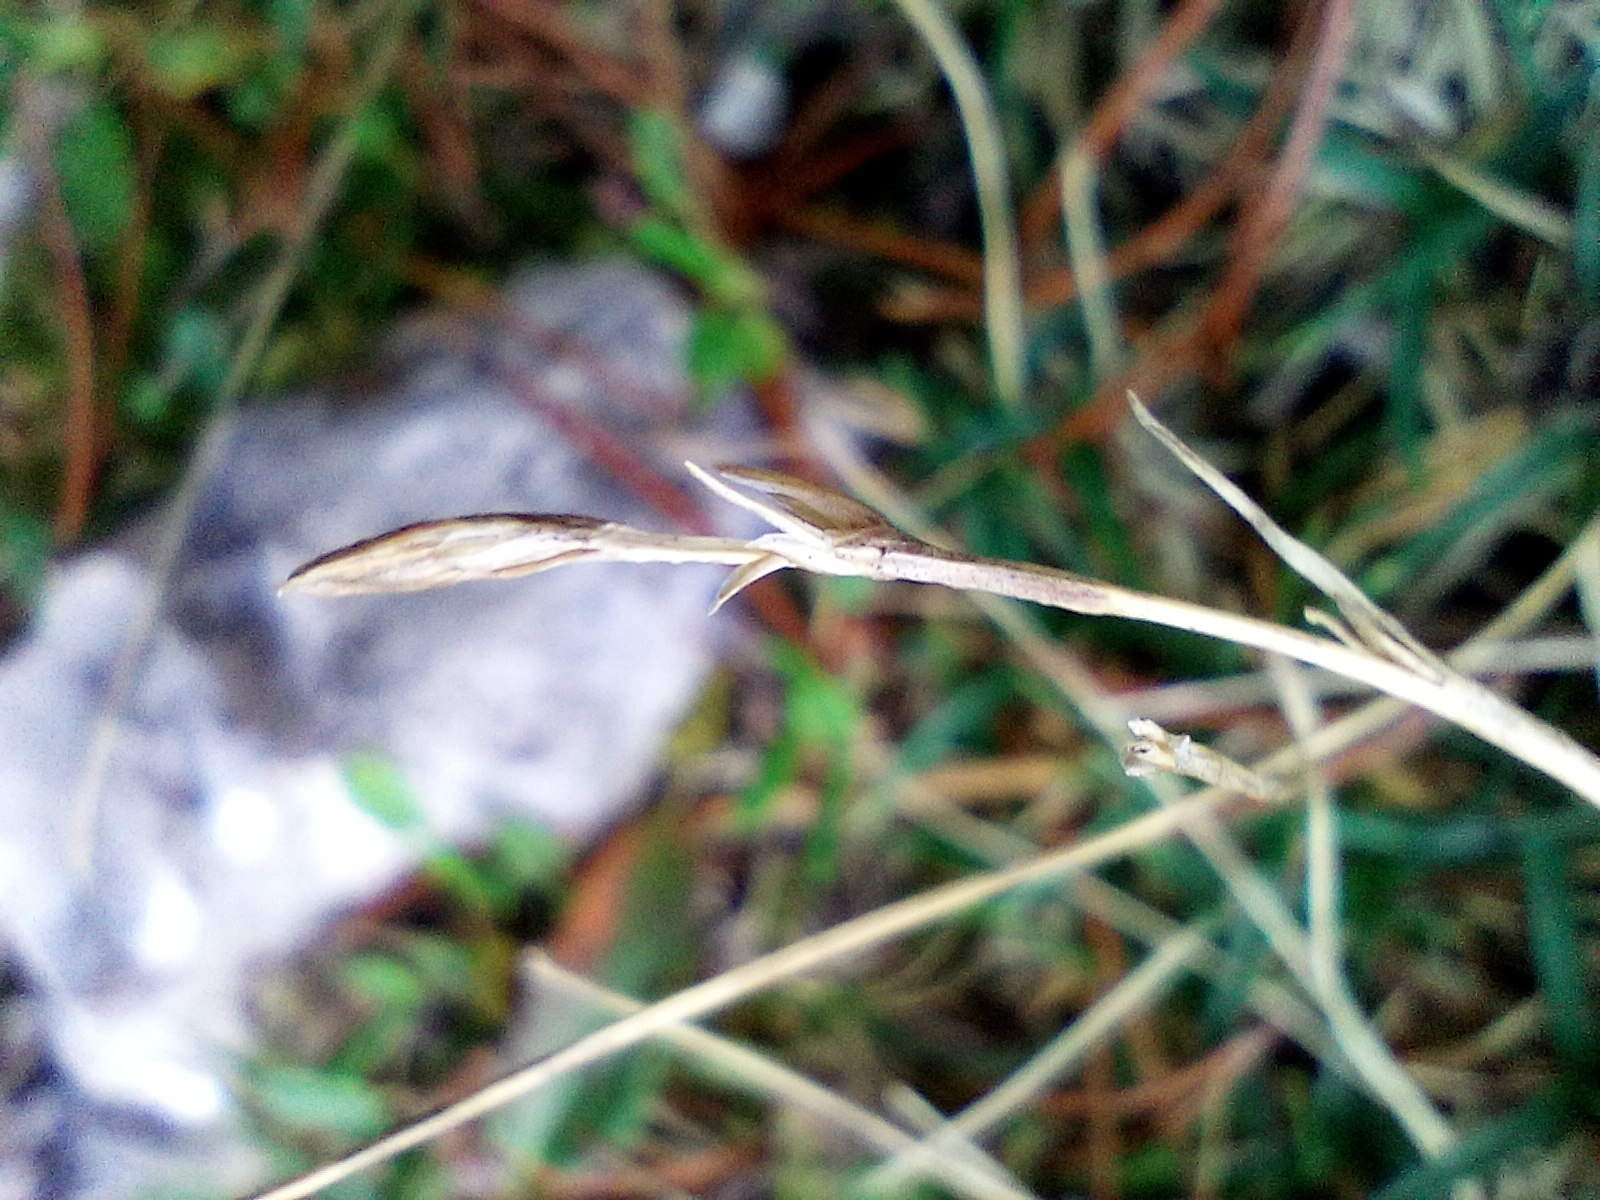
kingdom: Plantae
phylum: Tracheophyta
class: Liliopsida
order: Poales
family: Cyperaceae
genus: Carex
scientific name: Carex firma
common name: Dwarf pillow sedge
